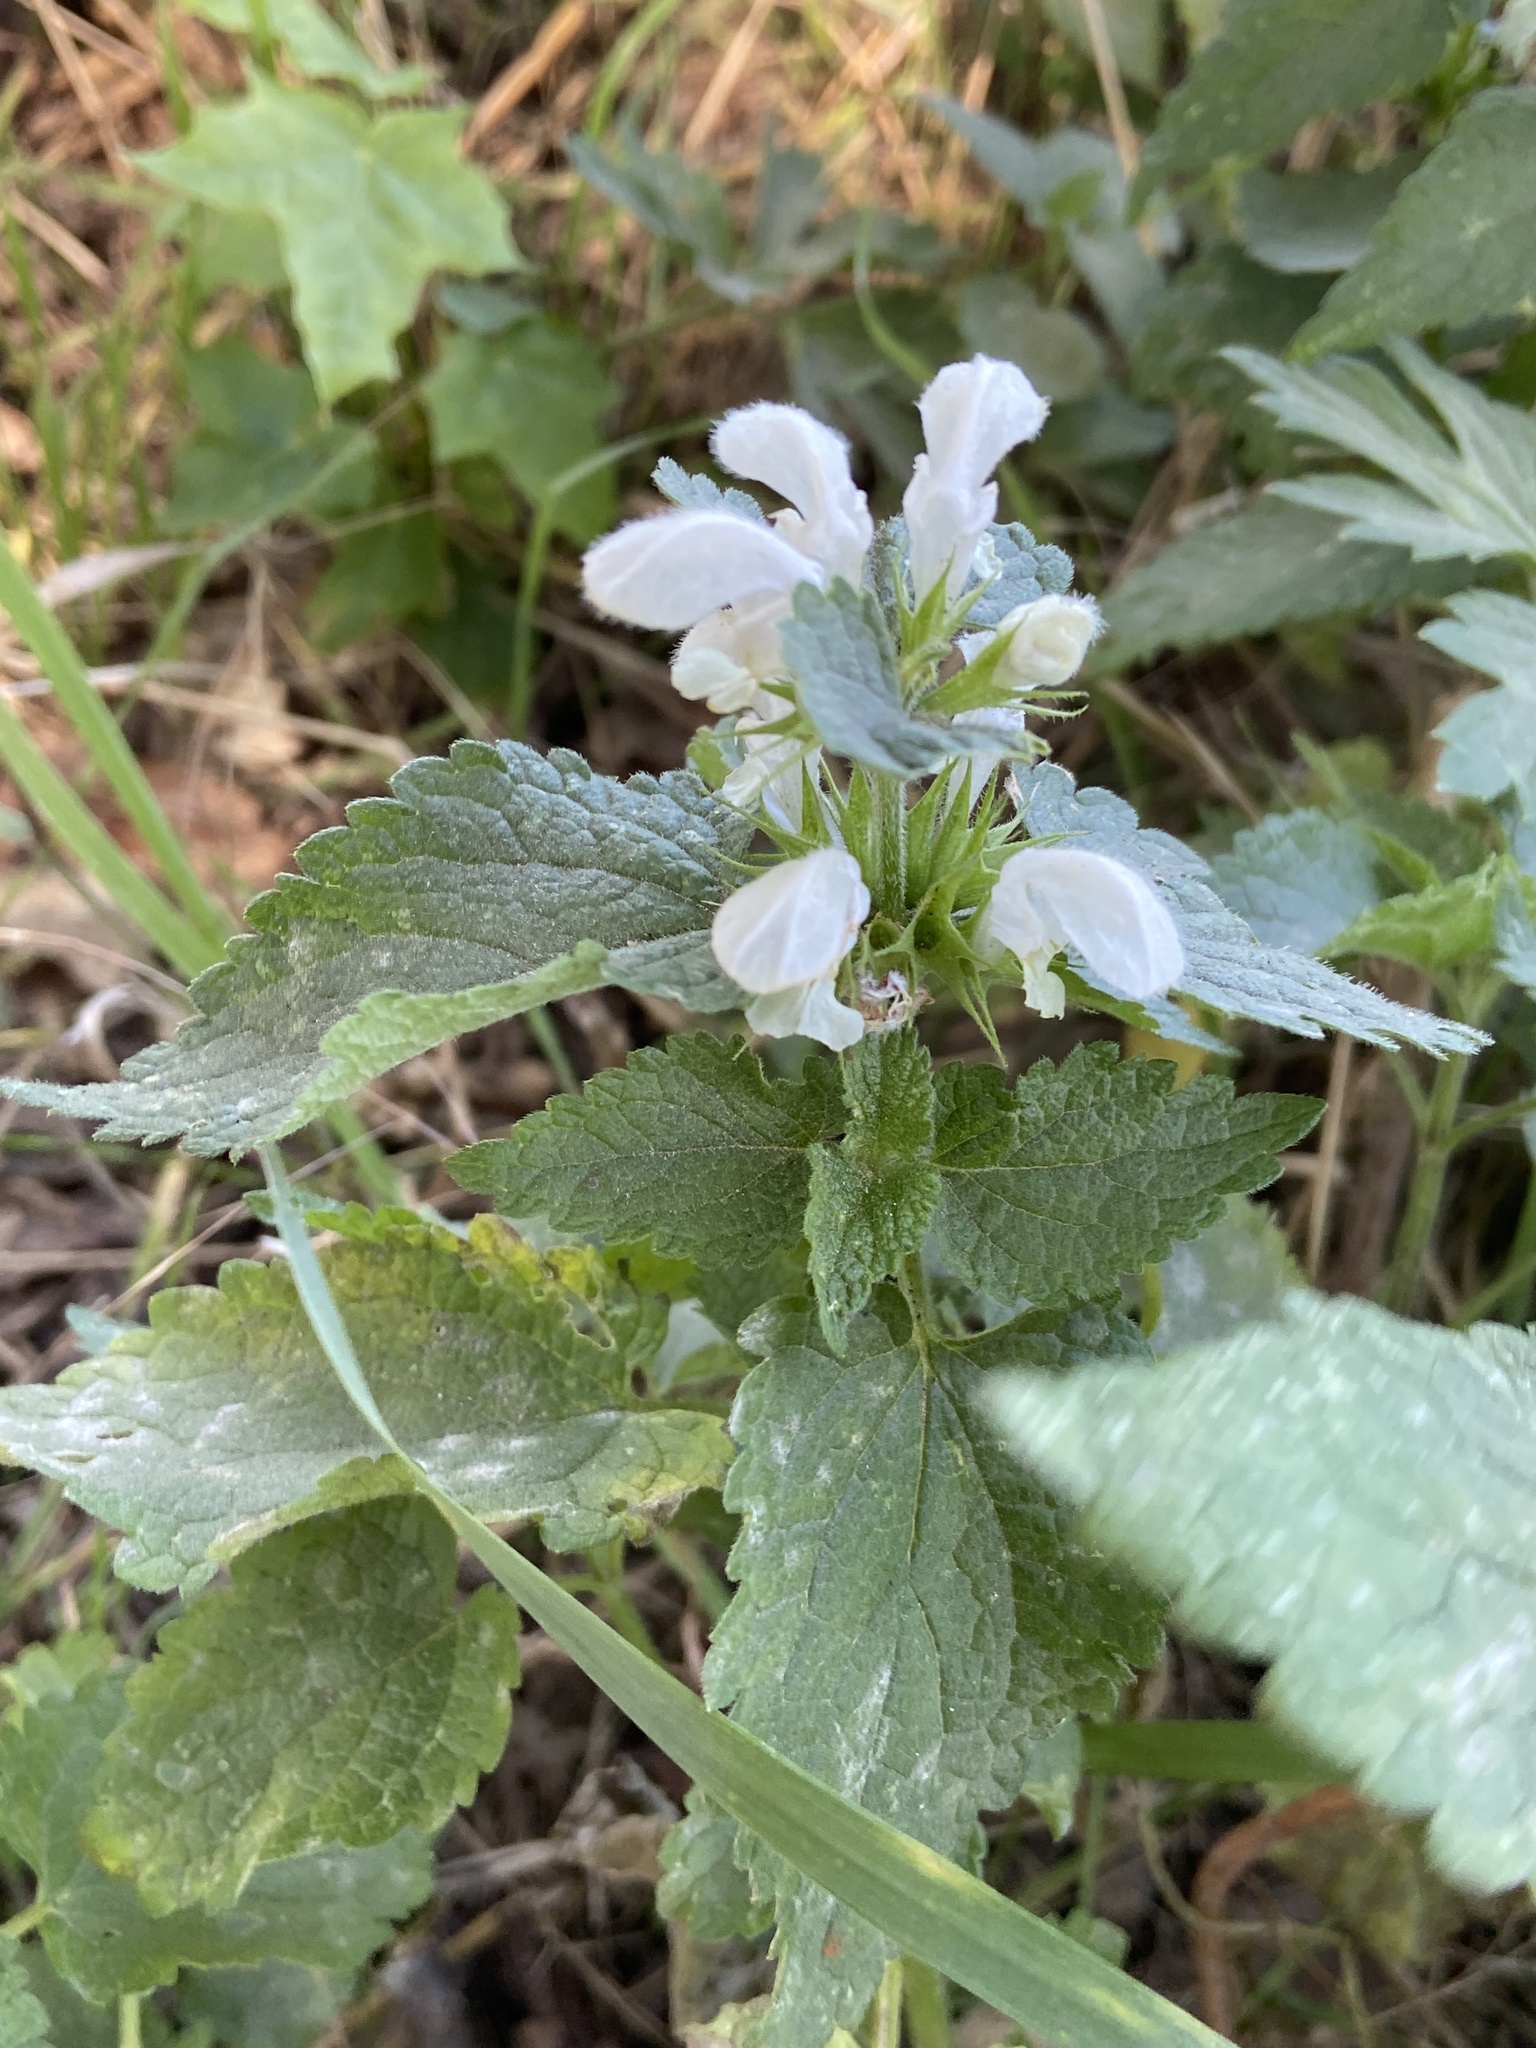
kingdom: Plantae
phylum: Tracheophyta
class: Magnoliopsida
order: Lamiales
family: Lamiaceae
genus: Lamium
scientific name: Lamium album
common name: White dead-nettle
